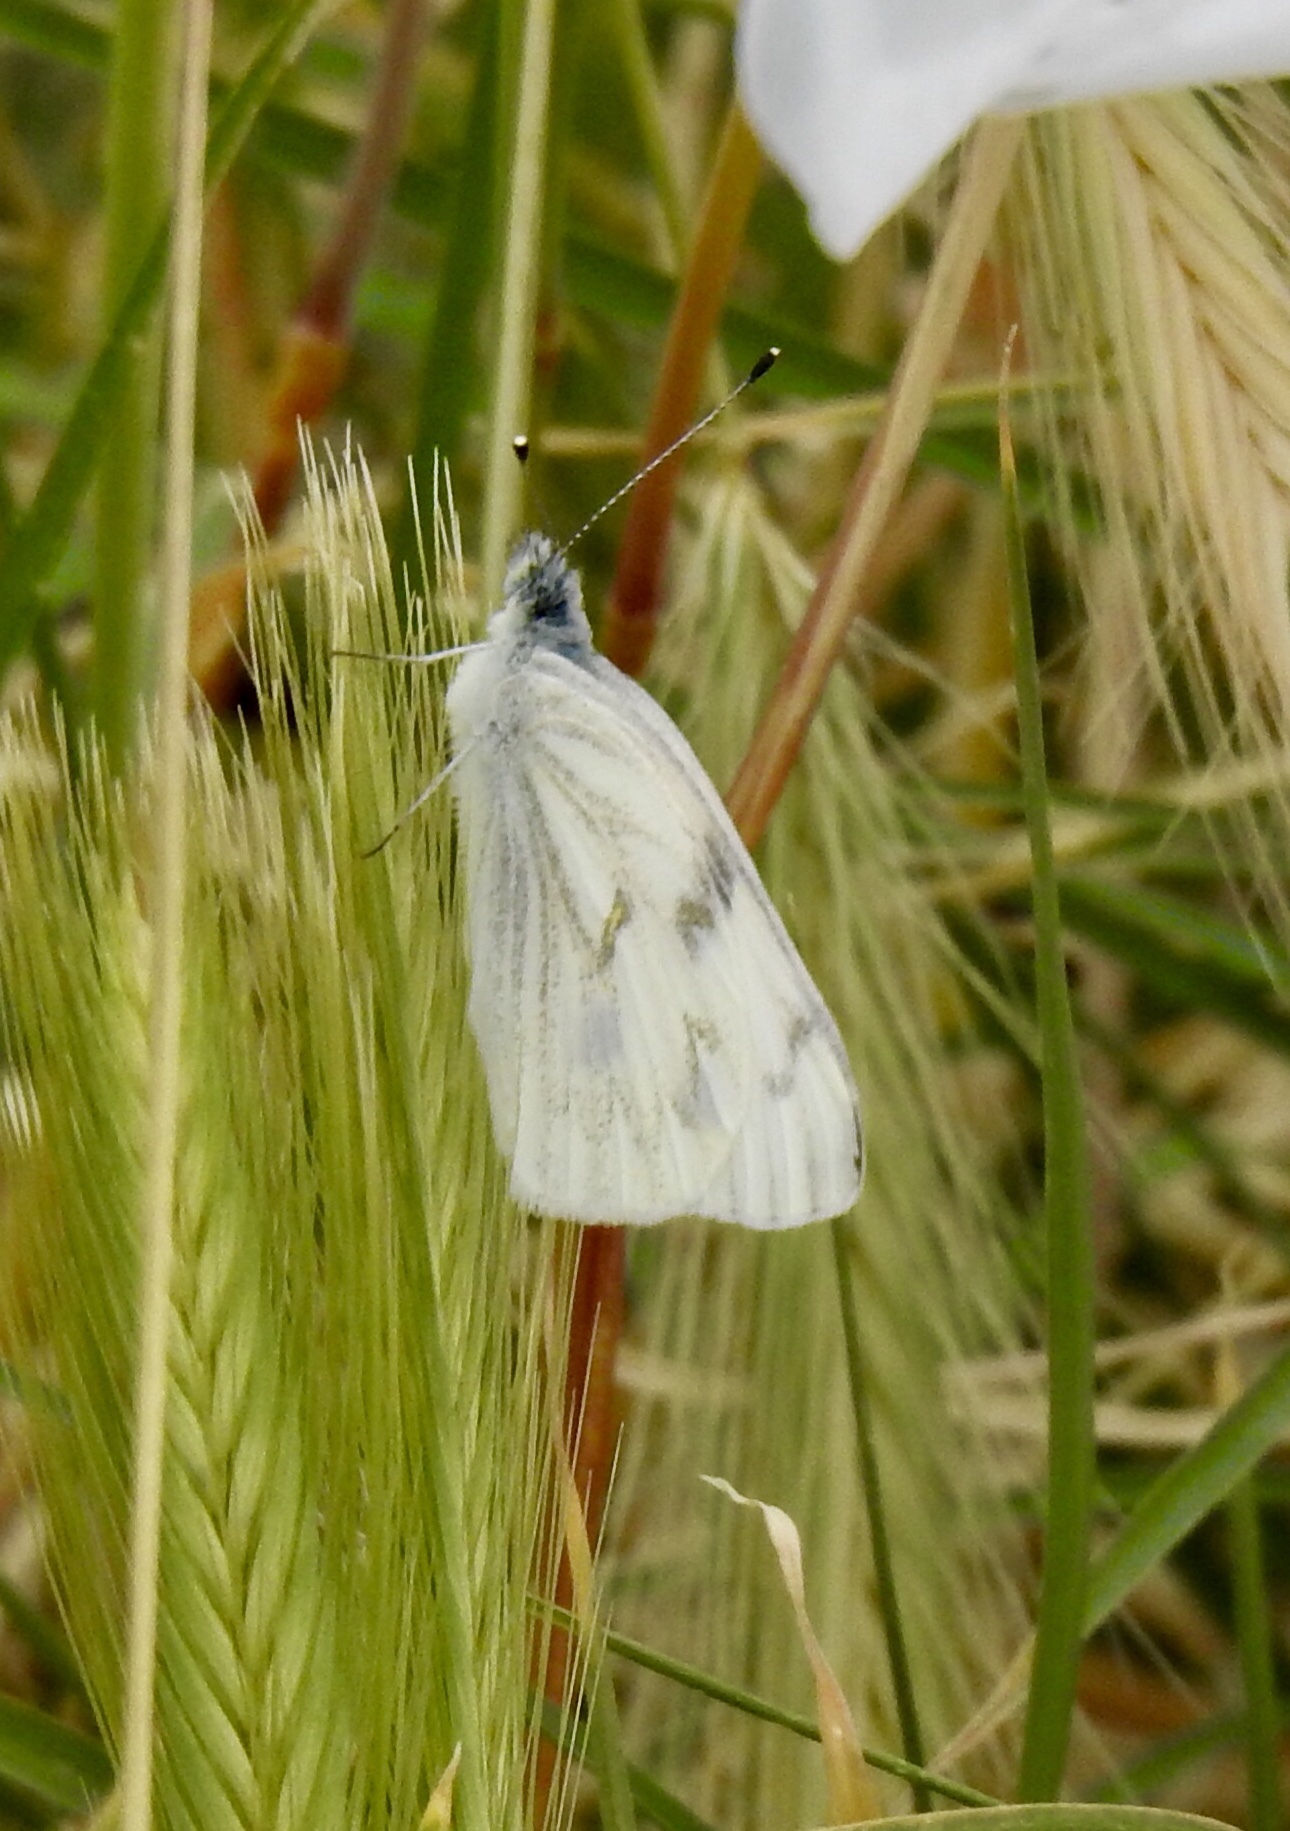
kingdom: Animalia
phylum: Arthropoda
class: Insecta
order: Lepidoptera
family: Pieridae
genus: Pontia
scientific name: Pontia protodice
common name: Checkered white
